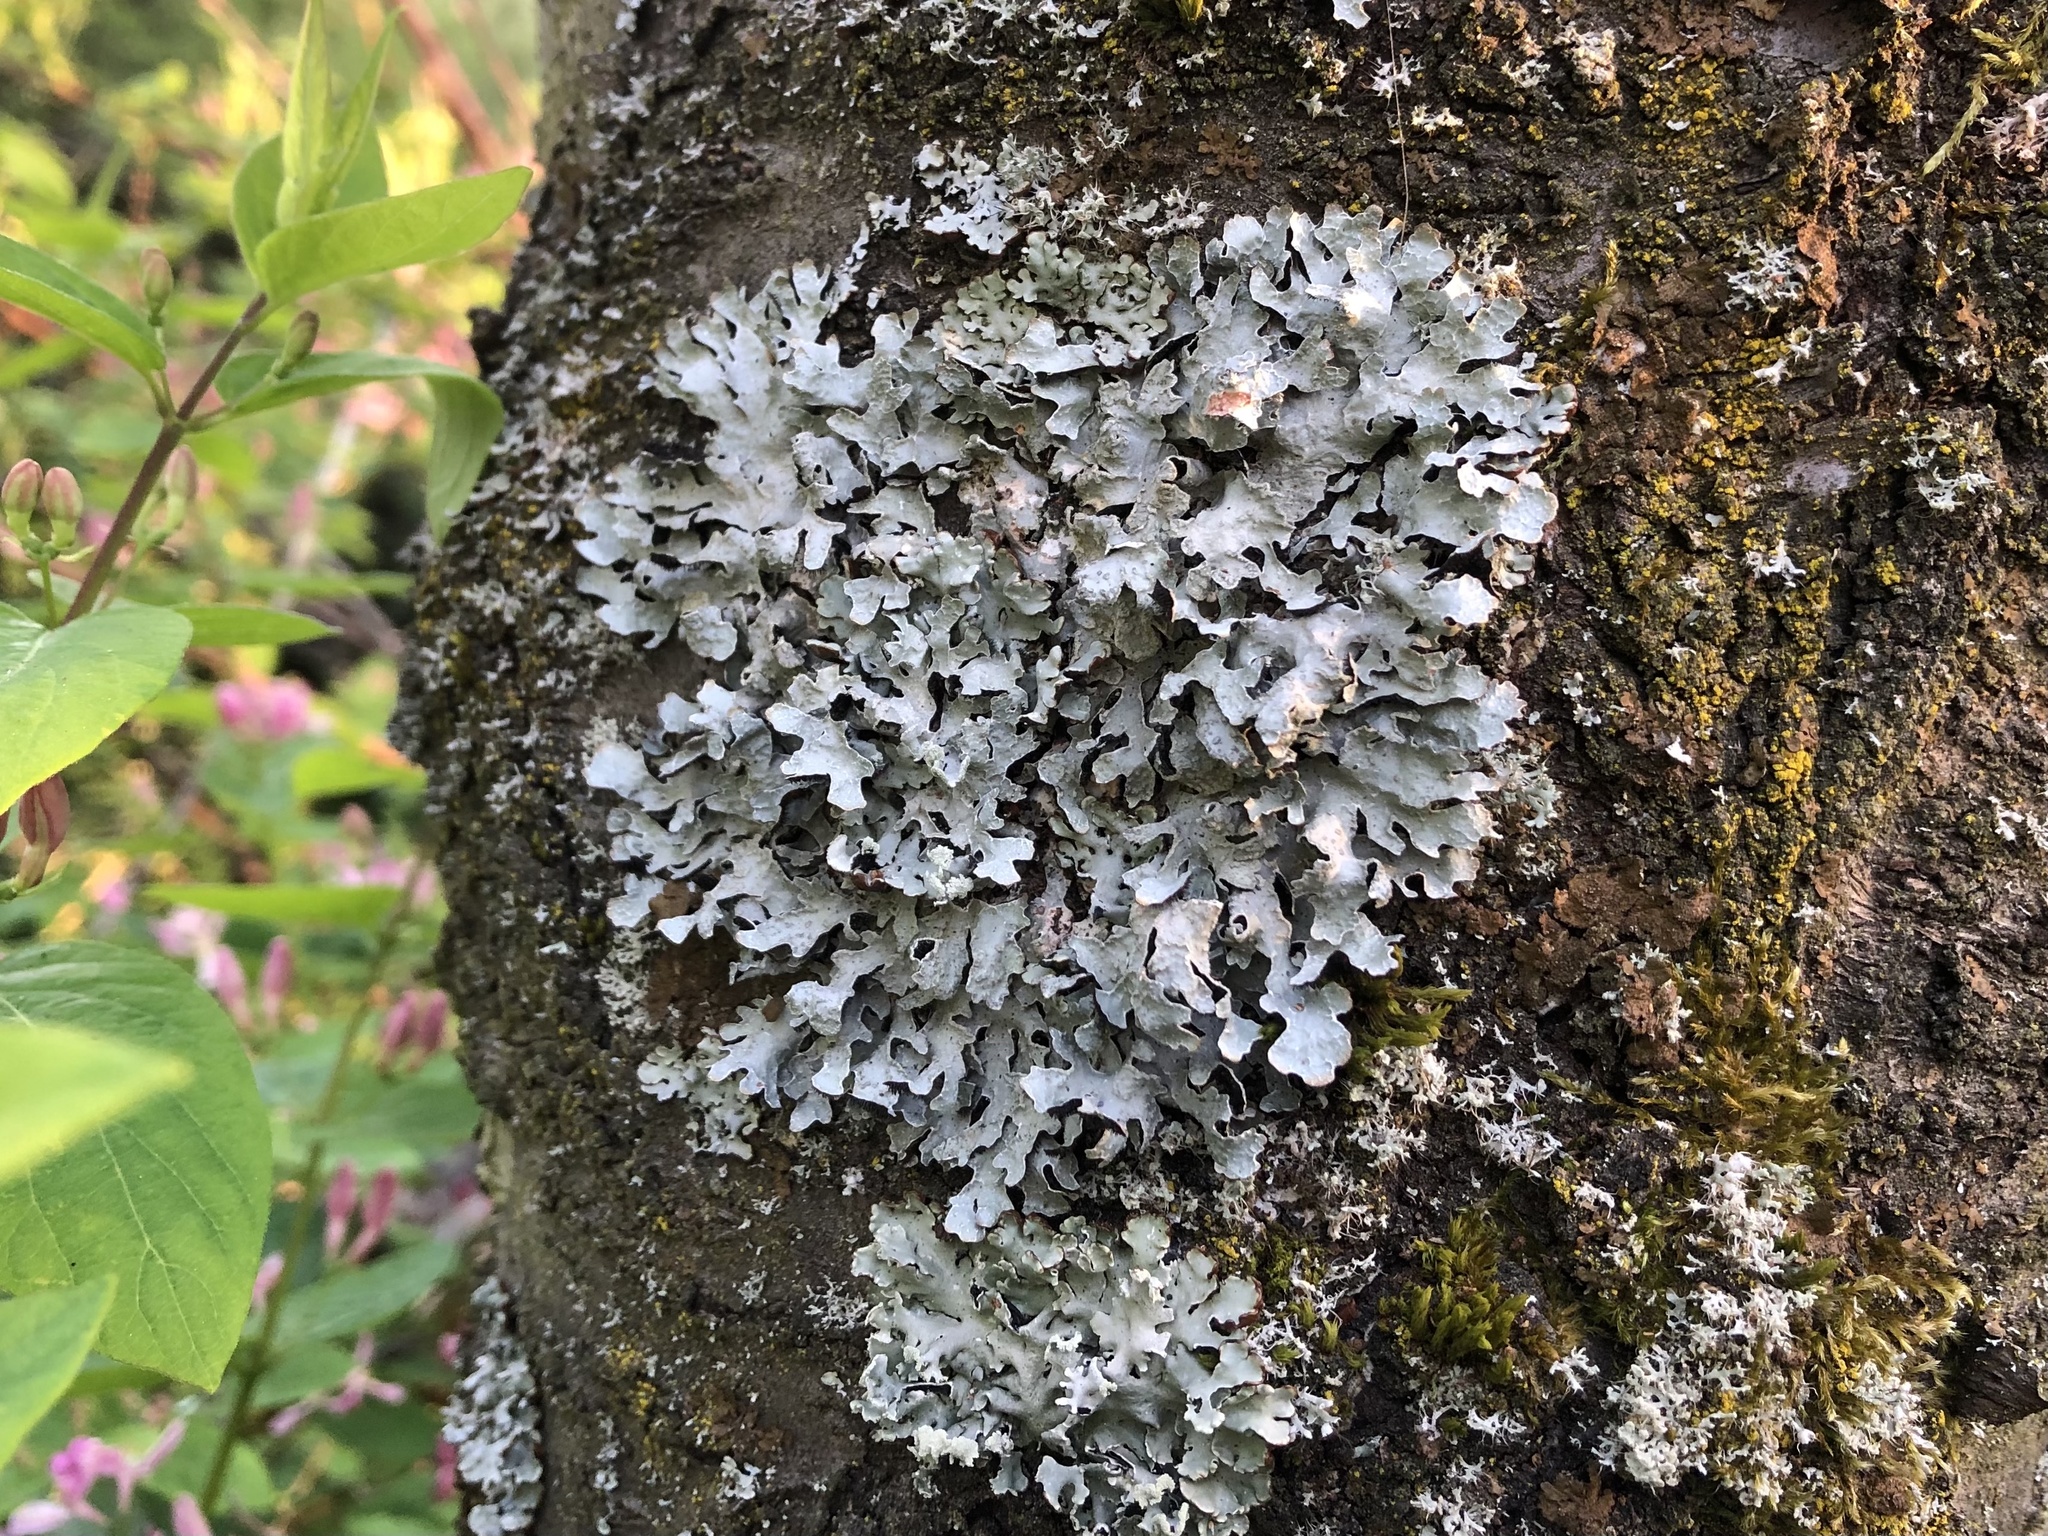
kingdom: Fungi
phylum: Ascomycota
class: Lecanoromycetes
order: Lecanorales
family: Parmeliaceae
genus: Parmelia
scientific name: Parmelia sulcata
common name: Netted shield lichen
